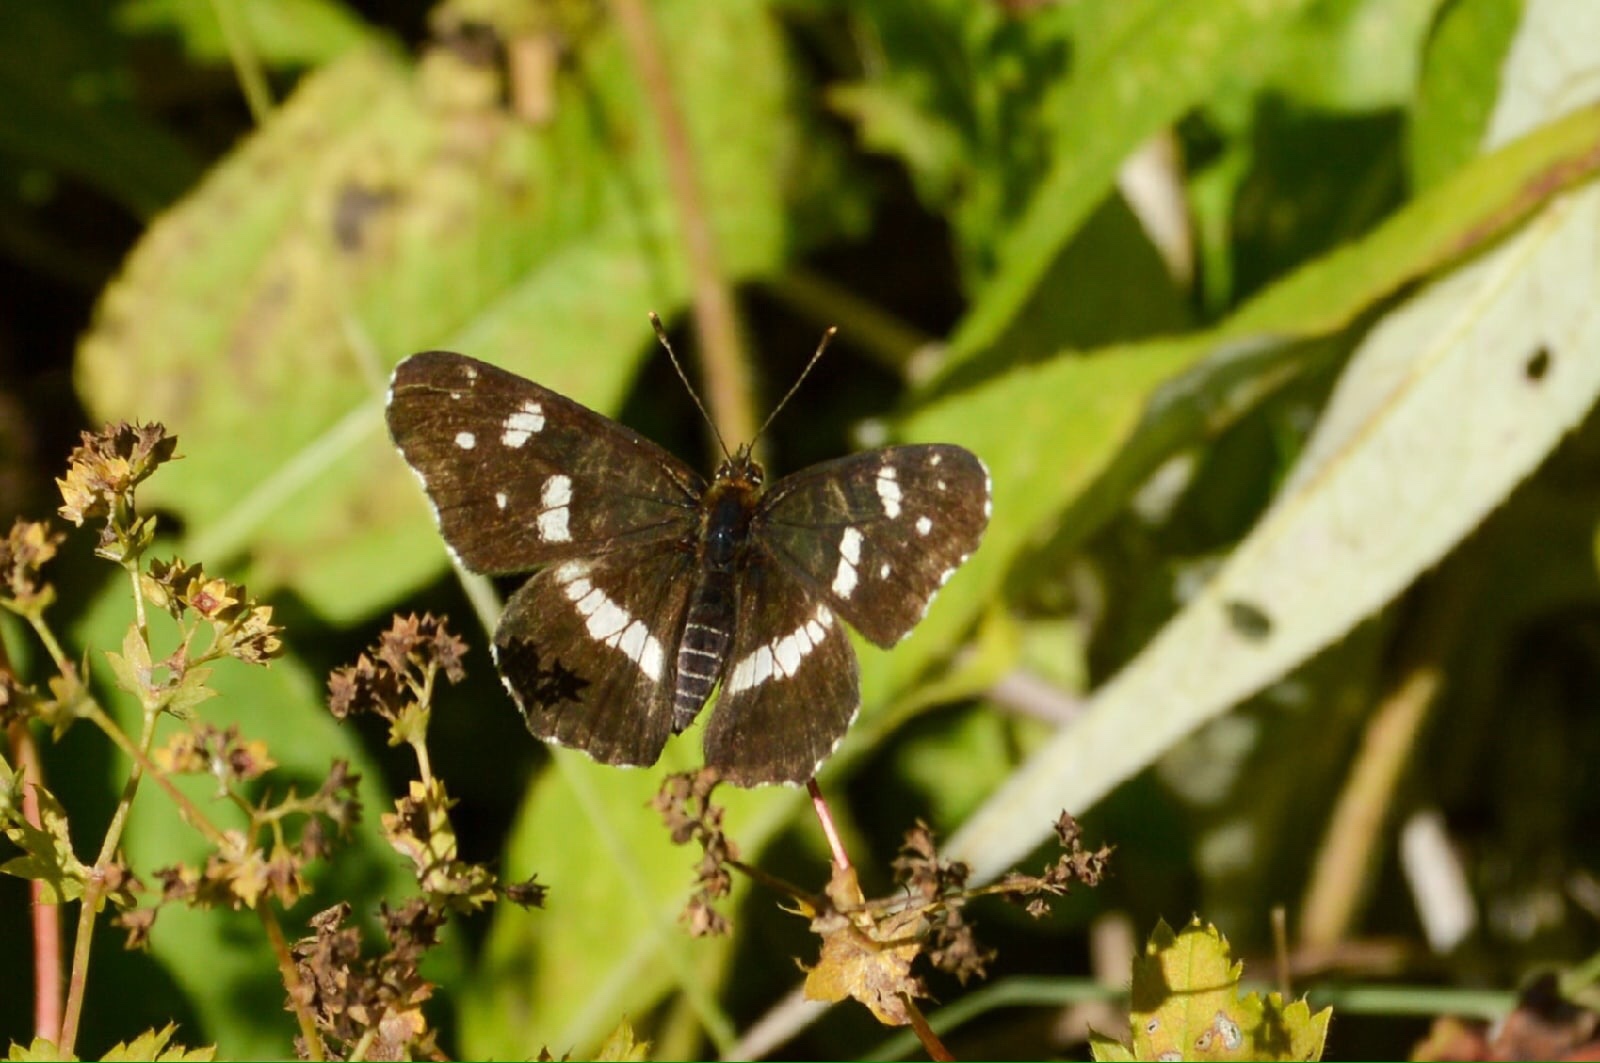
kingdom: Animalia
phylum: Arthropoda
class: Insecta
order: Lepidoptera
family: Nymphalidae
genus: Araschnia
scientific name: Araschnia levana
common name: Map butterfly
